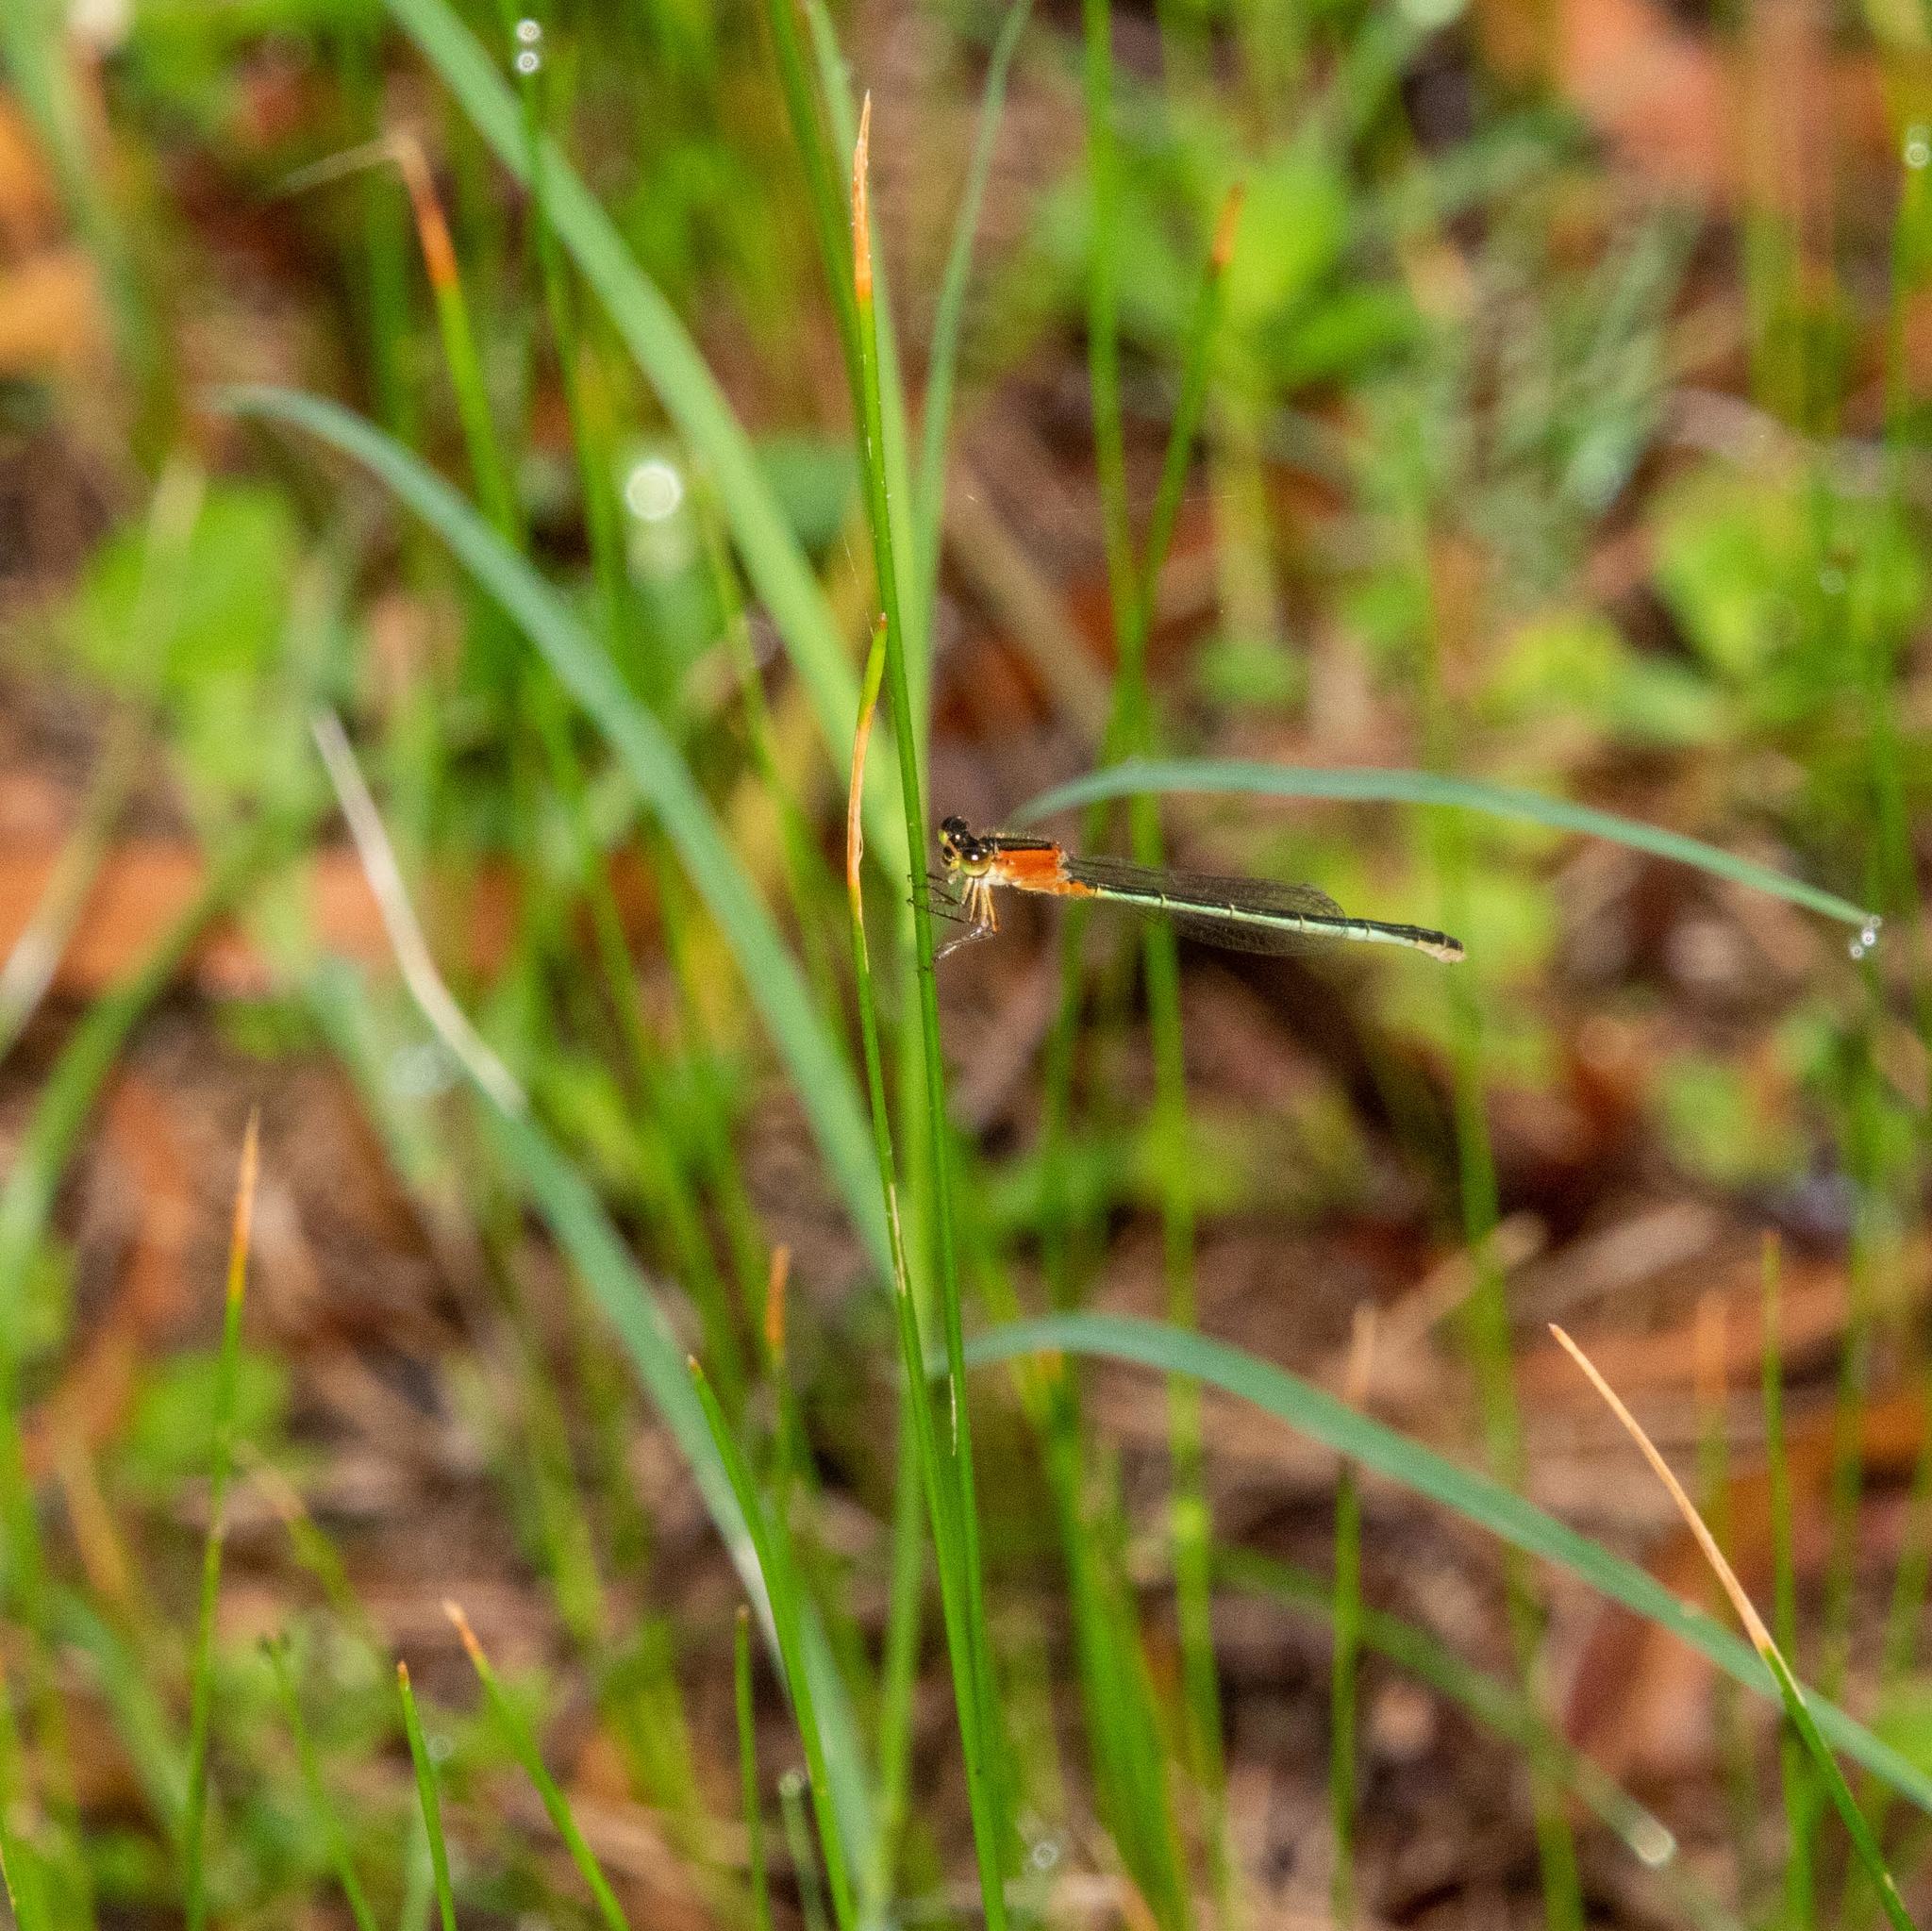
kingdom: Animalia
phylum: Arthropoda
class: Insecta
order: Odonata
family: Coenagrionidae
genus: Ischnura
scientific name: Ischnura ramburii
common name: Rambur's forktail
